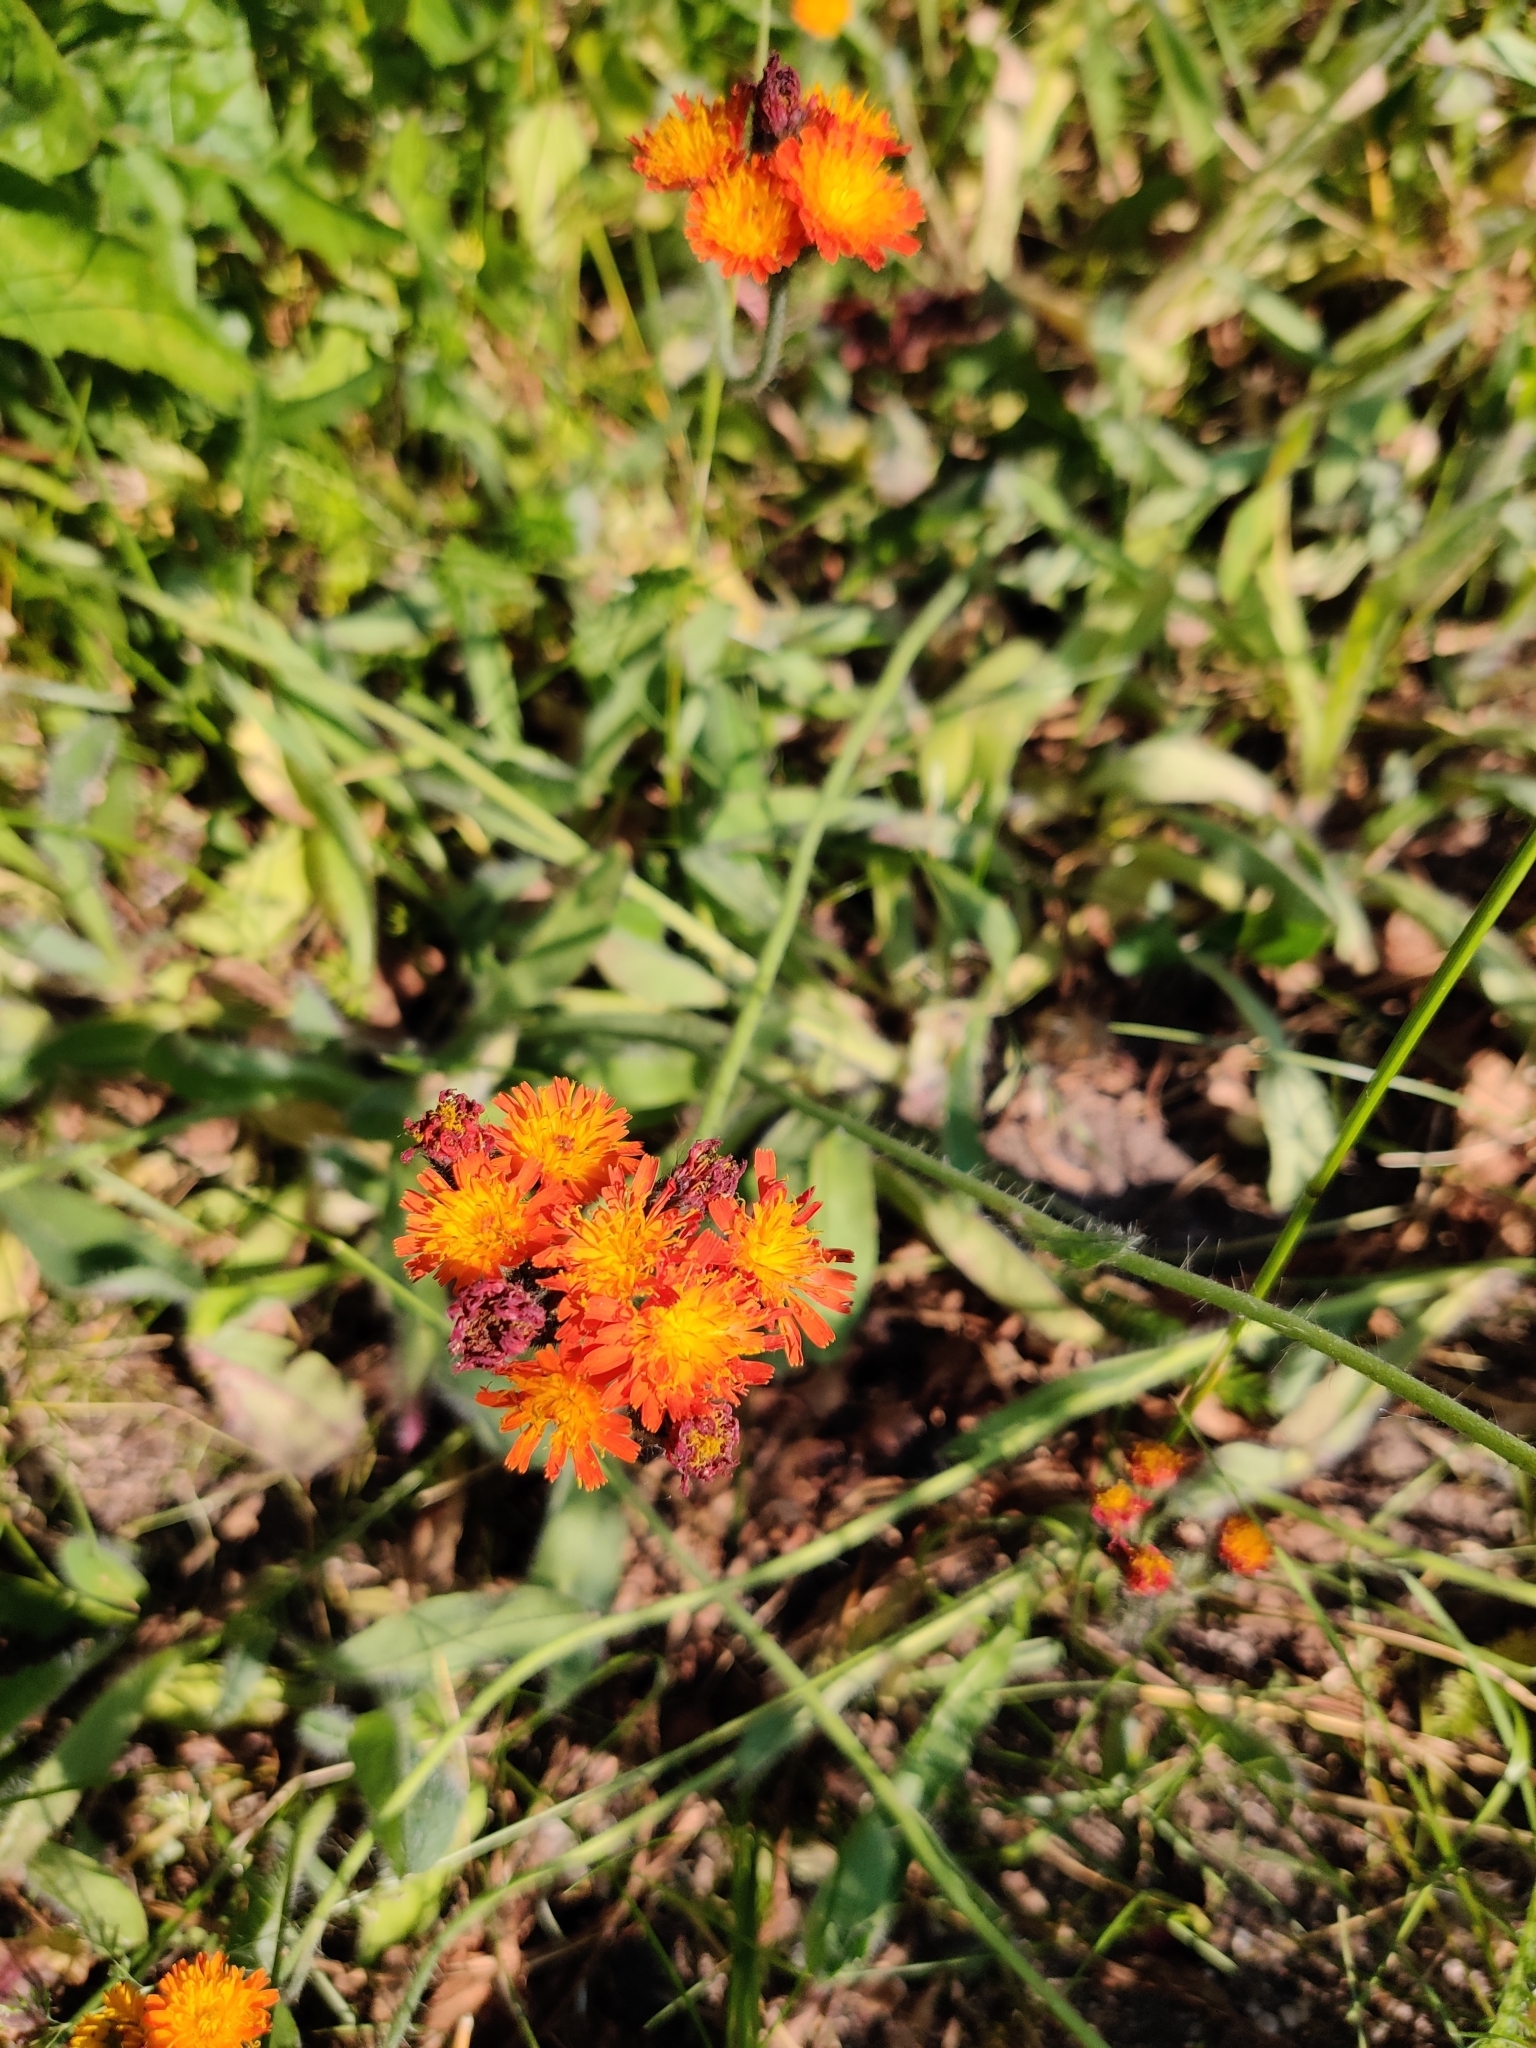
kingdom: Plantae
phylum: Tracheophyta
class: Magnoliopsida
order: Asterales
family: Asteraceae
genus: Pilosella
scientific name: Pilosella aurantiaca
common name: Fox-and-cubs
